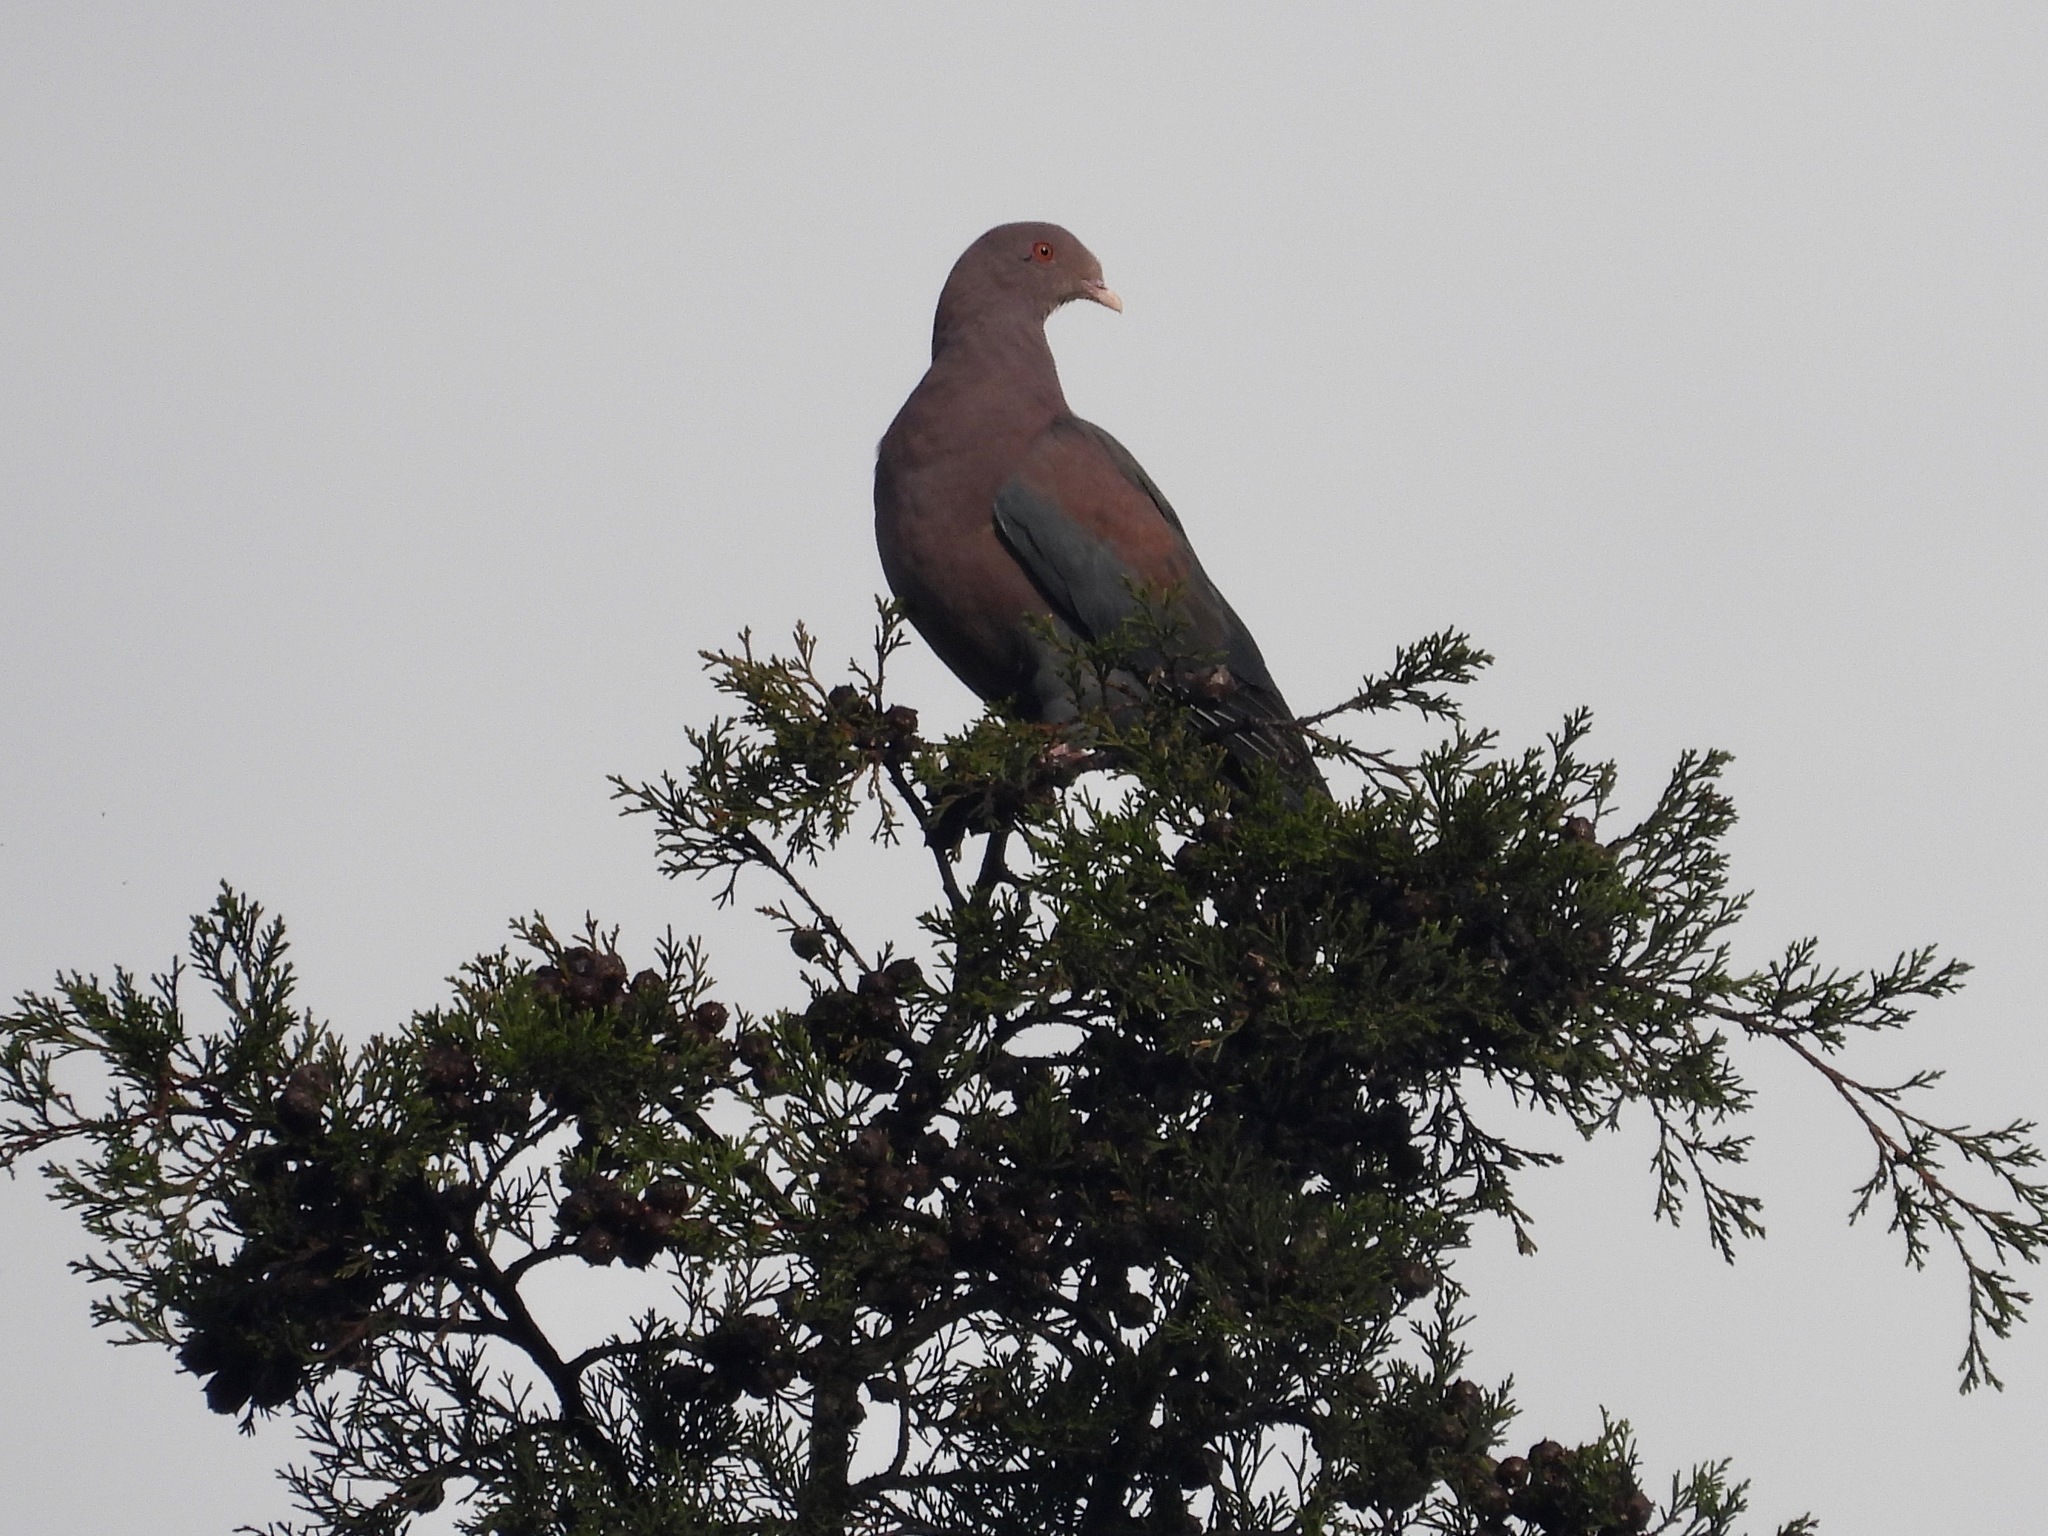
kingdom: Animalia
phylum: Chordata
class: Aves
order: Columbiformes
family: Columbidae
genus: Patagioenas
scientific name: Patagioenas flavirostris
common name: Red-billed pigeon
